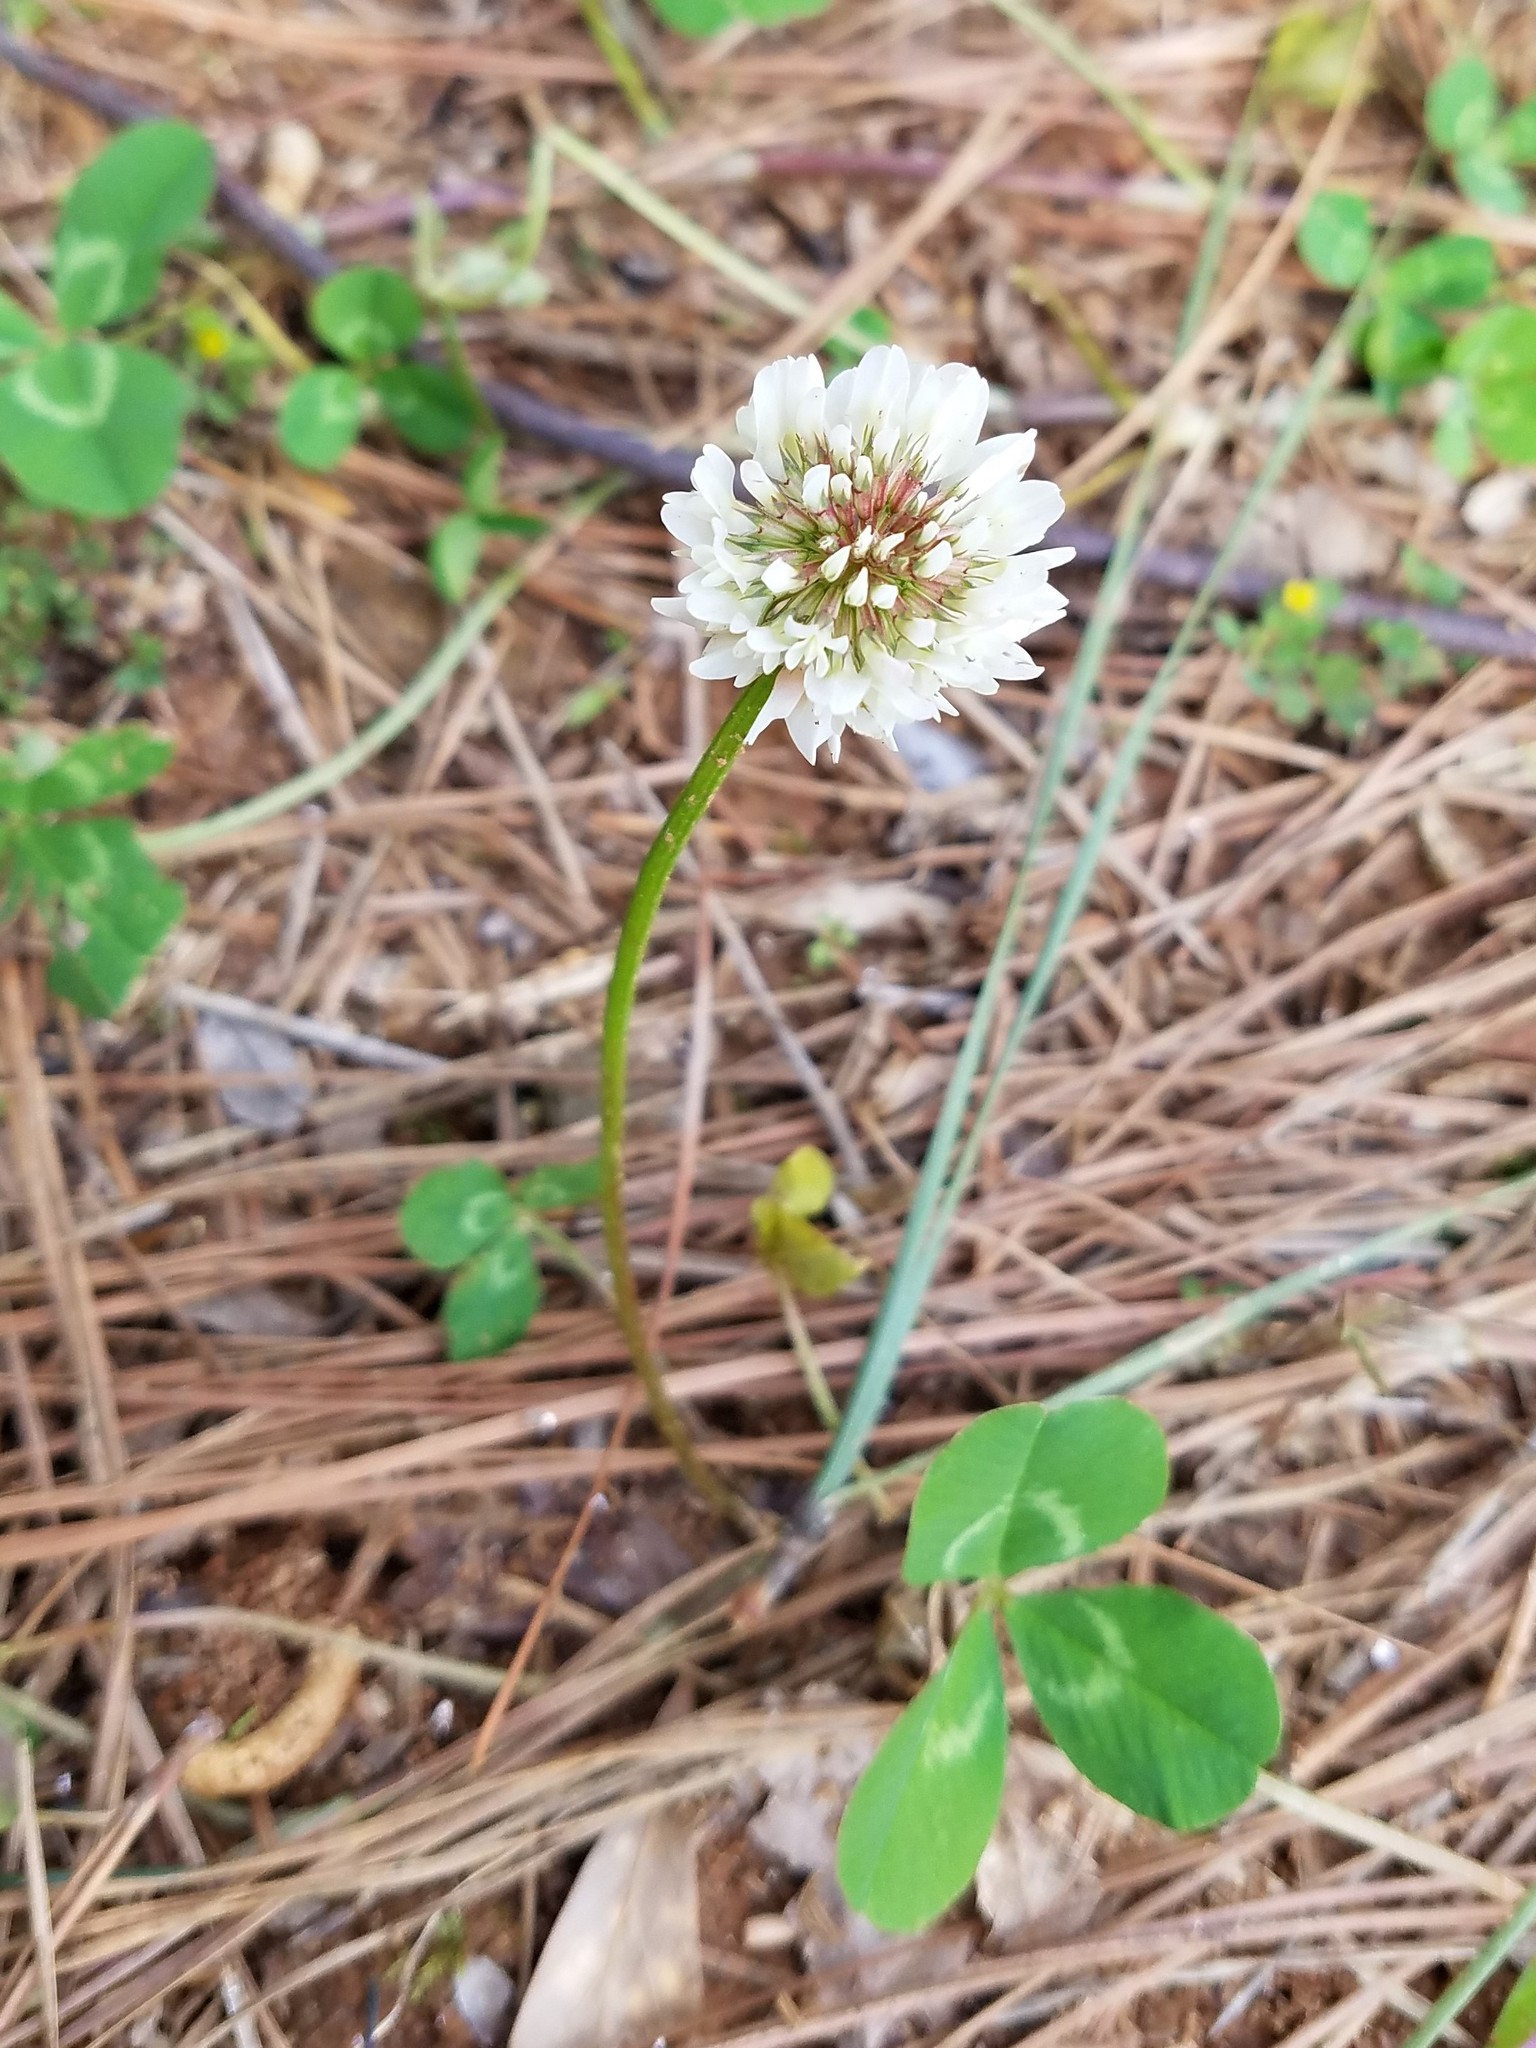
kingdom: Plantae
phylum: Tracheophyta
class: Magnoliopsida
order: Fabales
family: Fabaceae
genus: Trifolium
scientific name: Trifolium repens
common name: White clover
